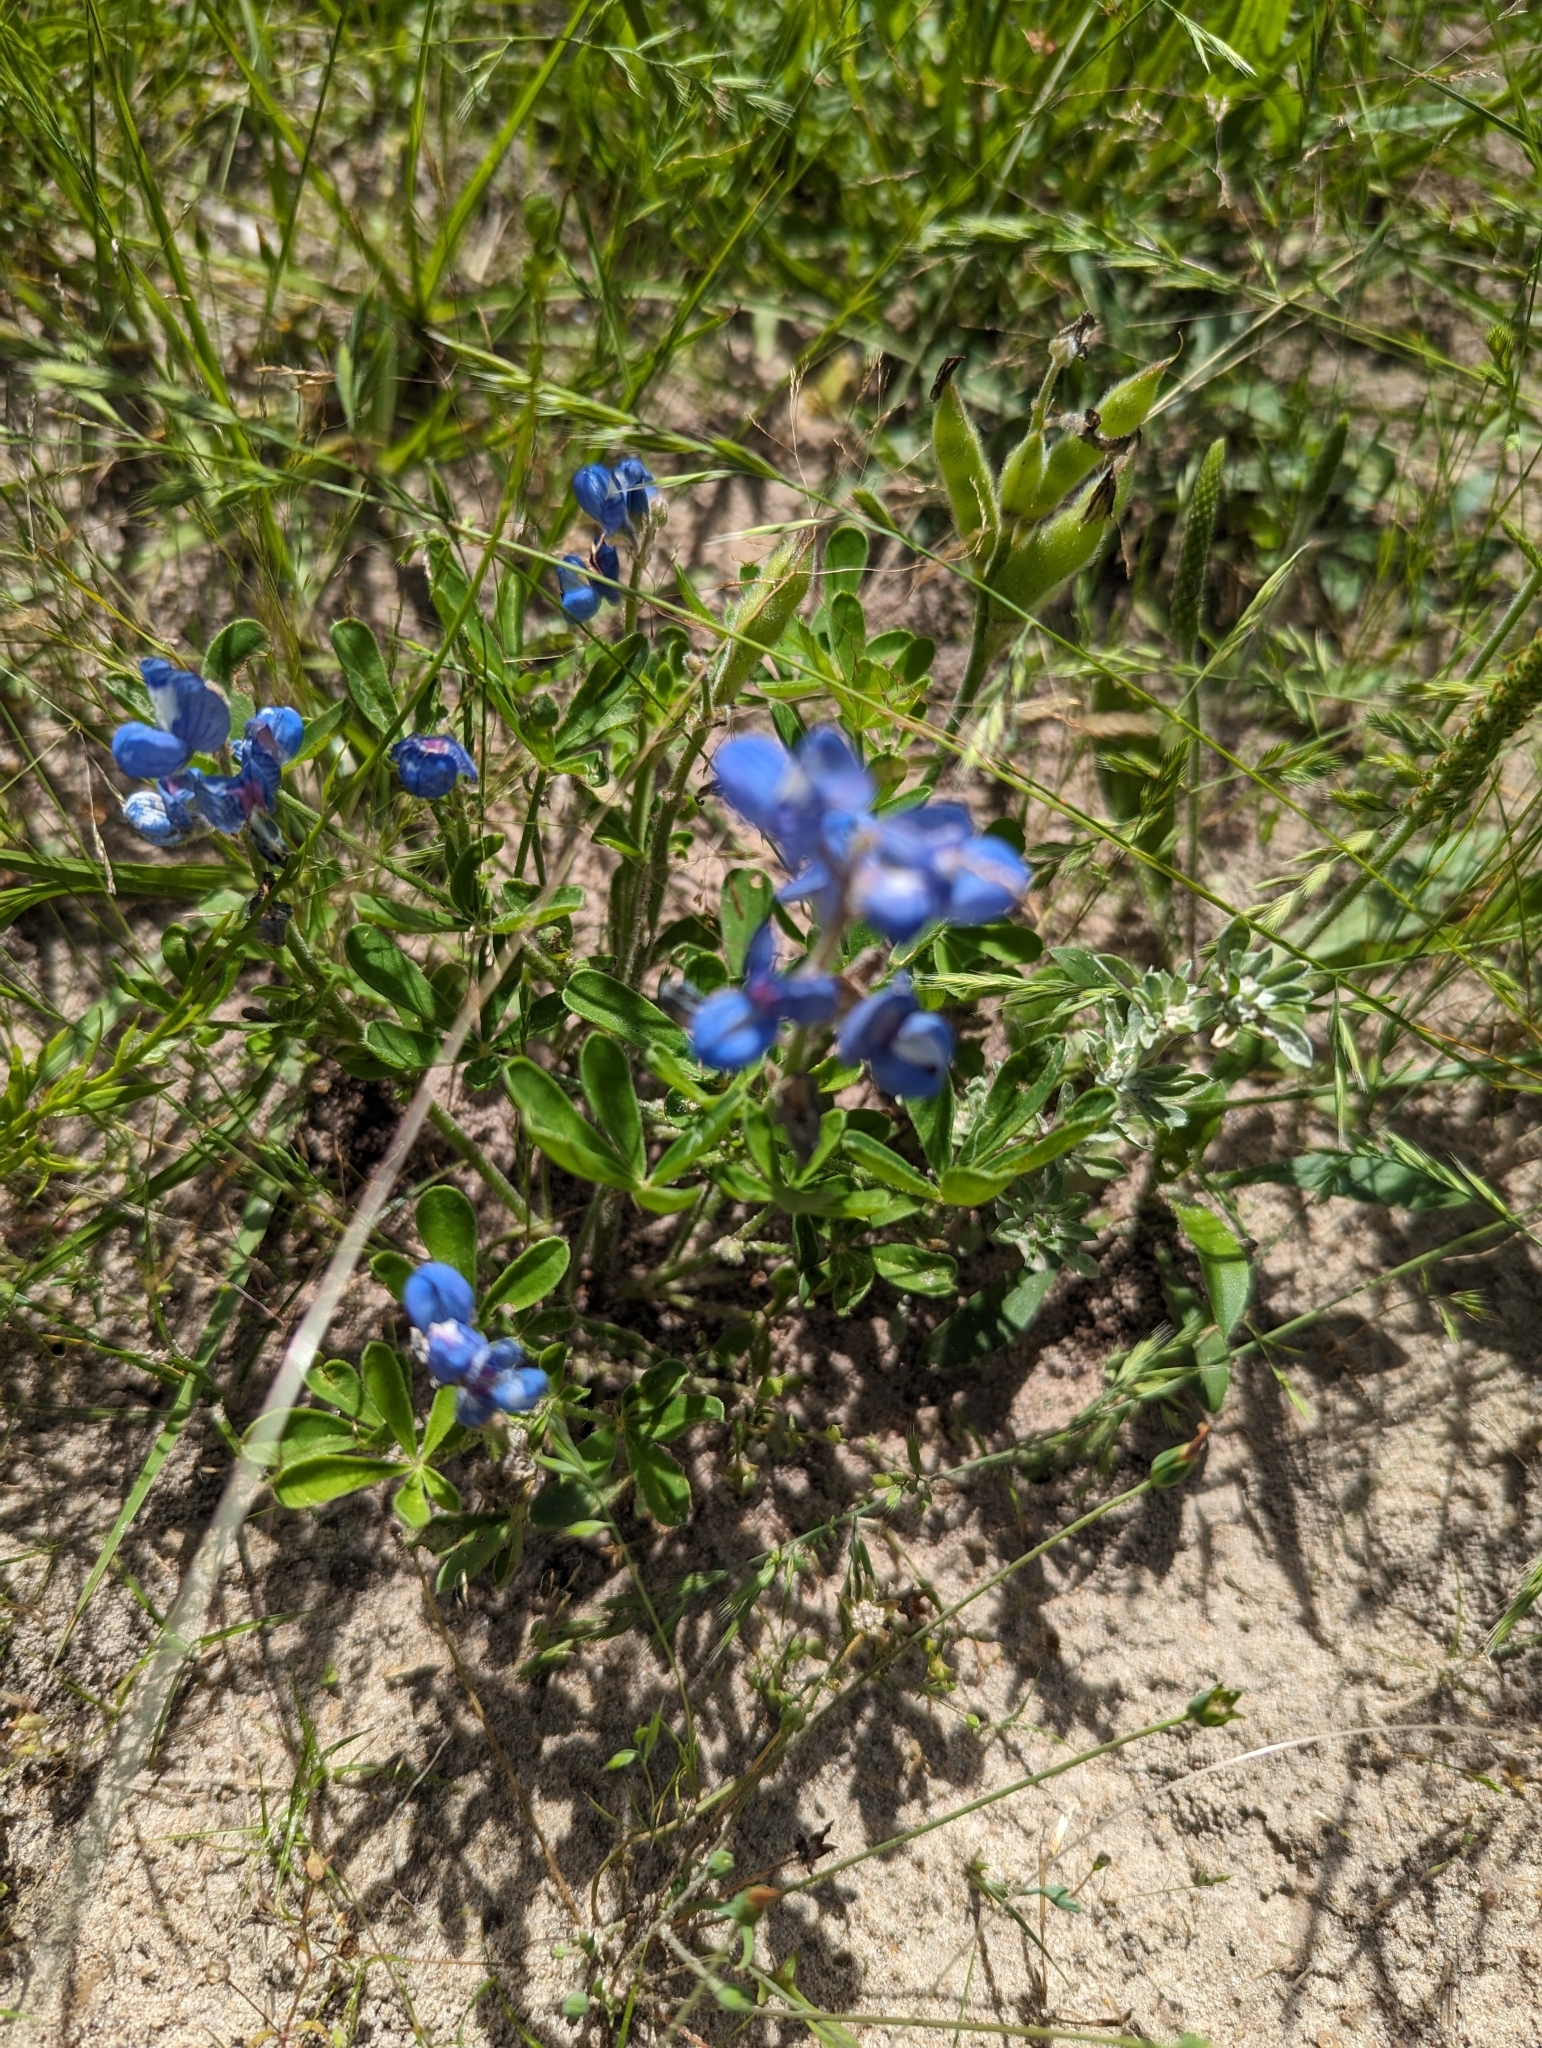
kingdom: Plantae
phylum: Tracheophyta
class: Magnoliopsida
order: Fabales
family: Fabaceae
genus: Lupinus
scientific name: Lupinus subcarnosus
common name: Texas bluebonnet
